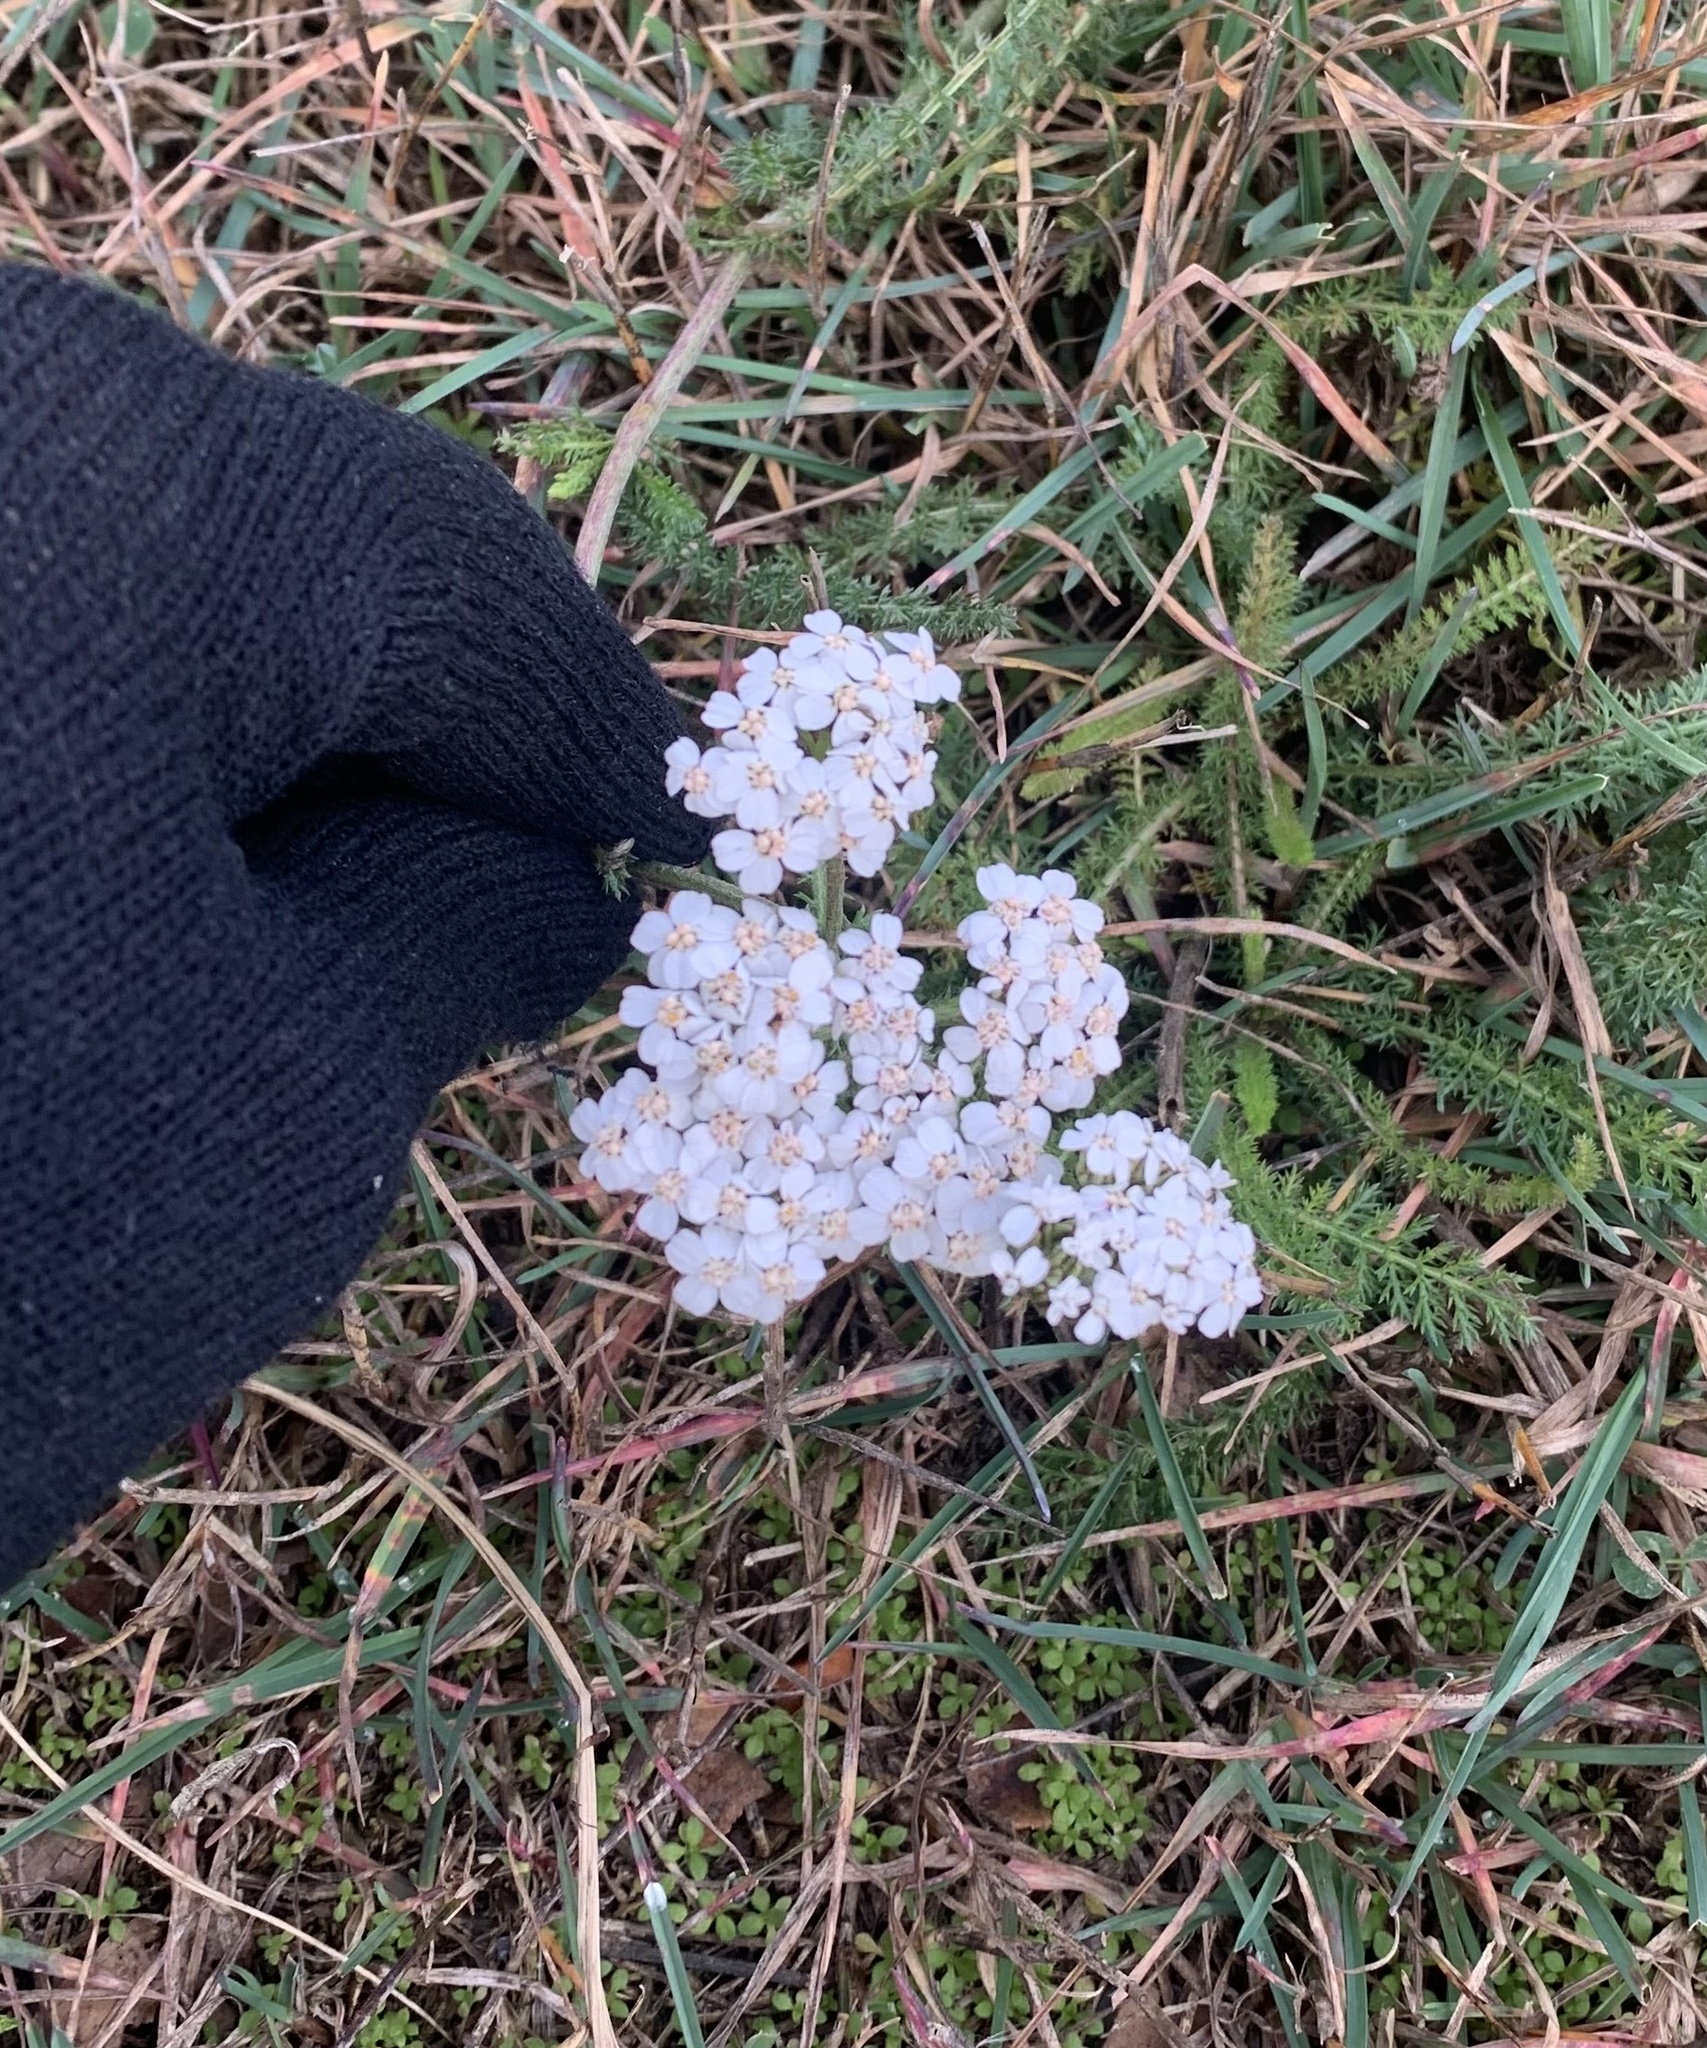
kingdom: Plantae
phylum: Tracheophyta
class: Magnoliopsida
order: Asterales
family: Asteraceae
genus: Achillea
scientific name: Achillea millefolium
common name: Yarrow
